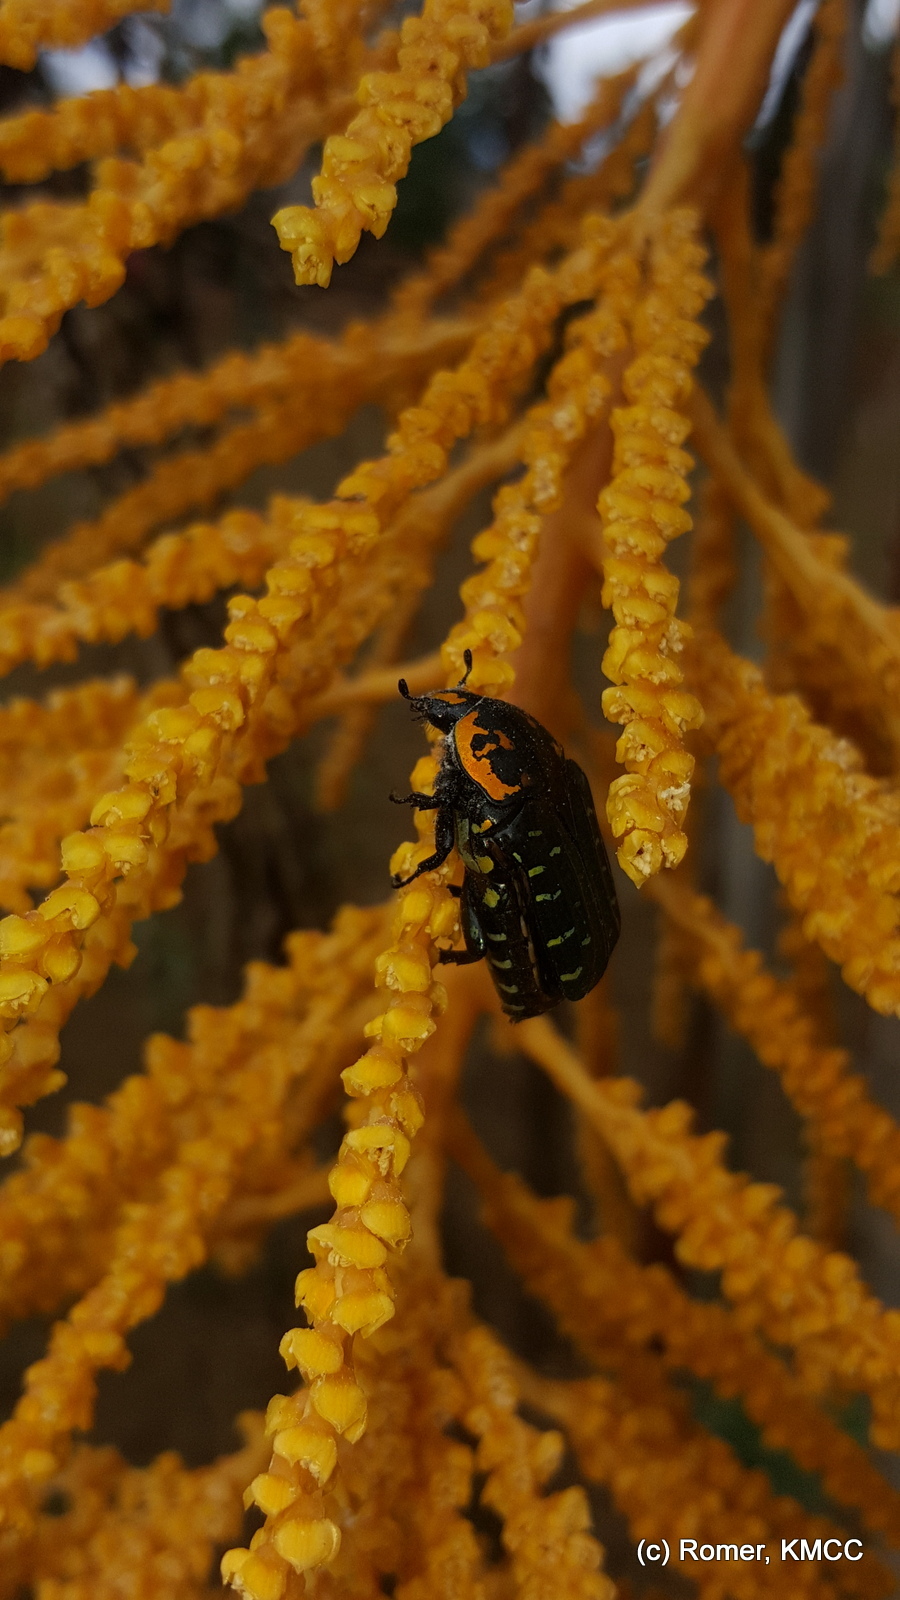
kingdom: Plantae
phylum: Tracheophyta
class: Liliopsida
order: Arecales
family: Arecaceae
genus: Ravenea
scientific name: Ravenea madagascariensis
